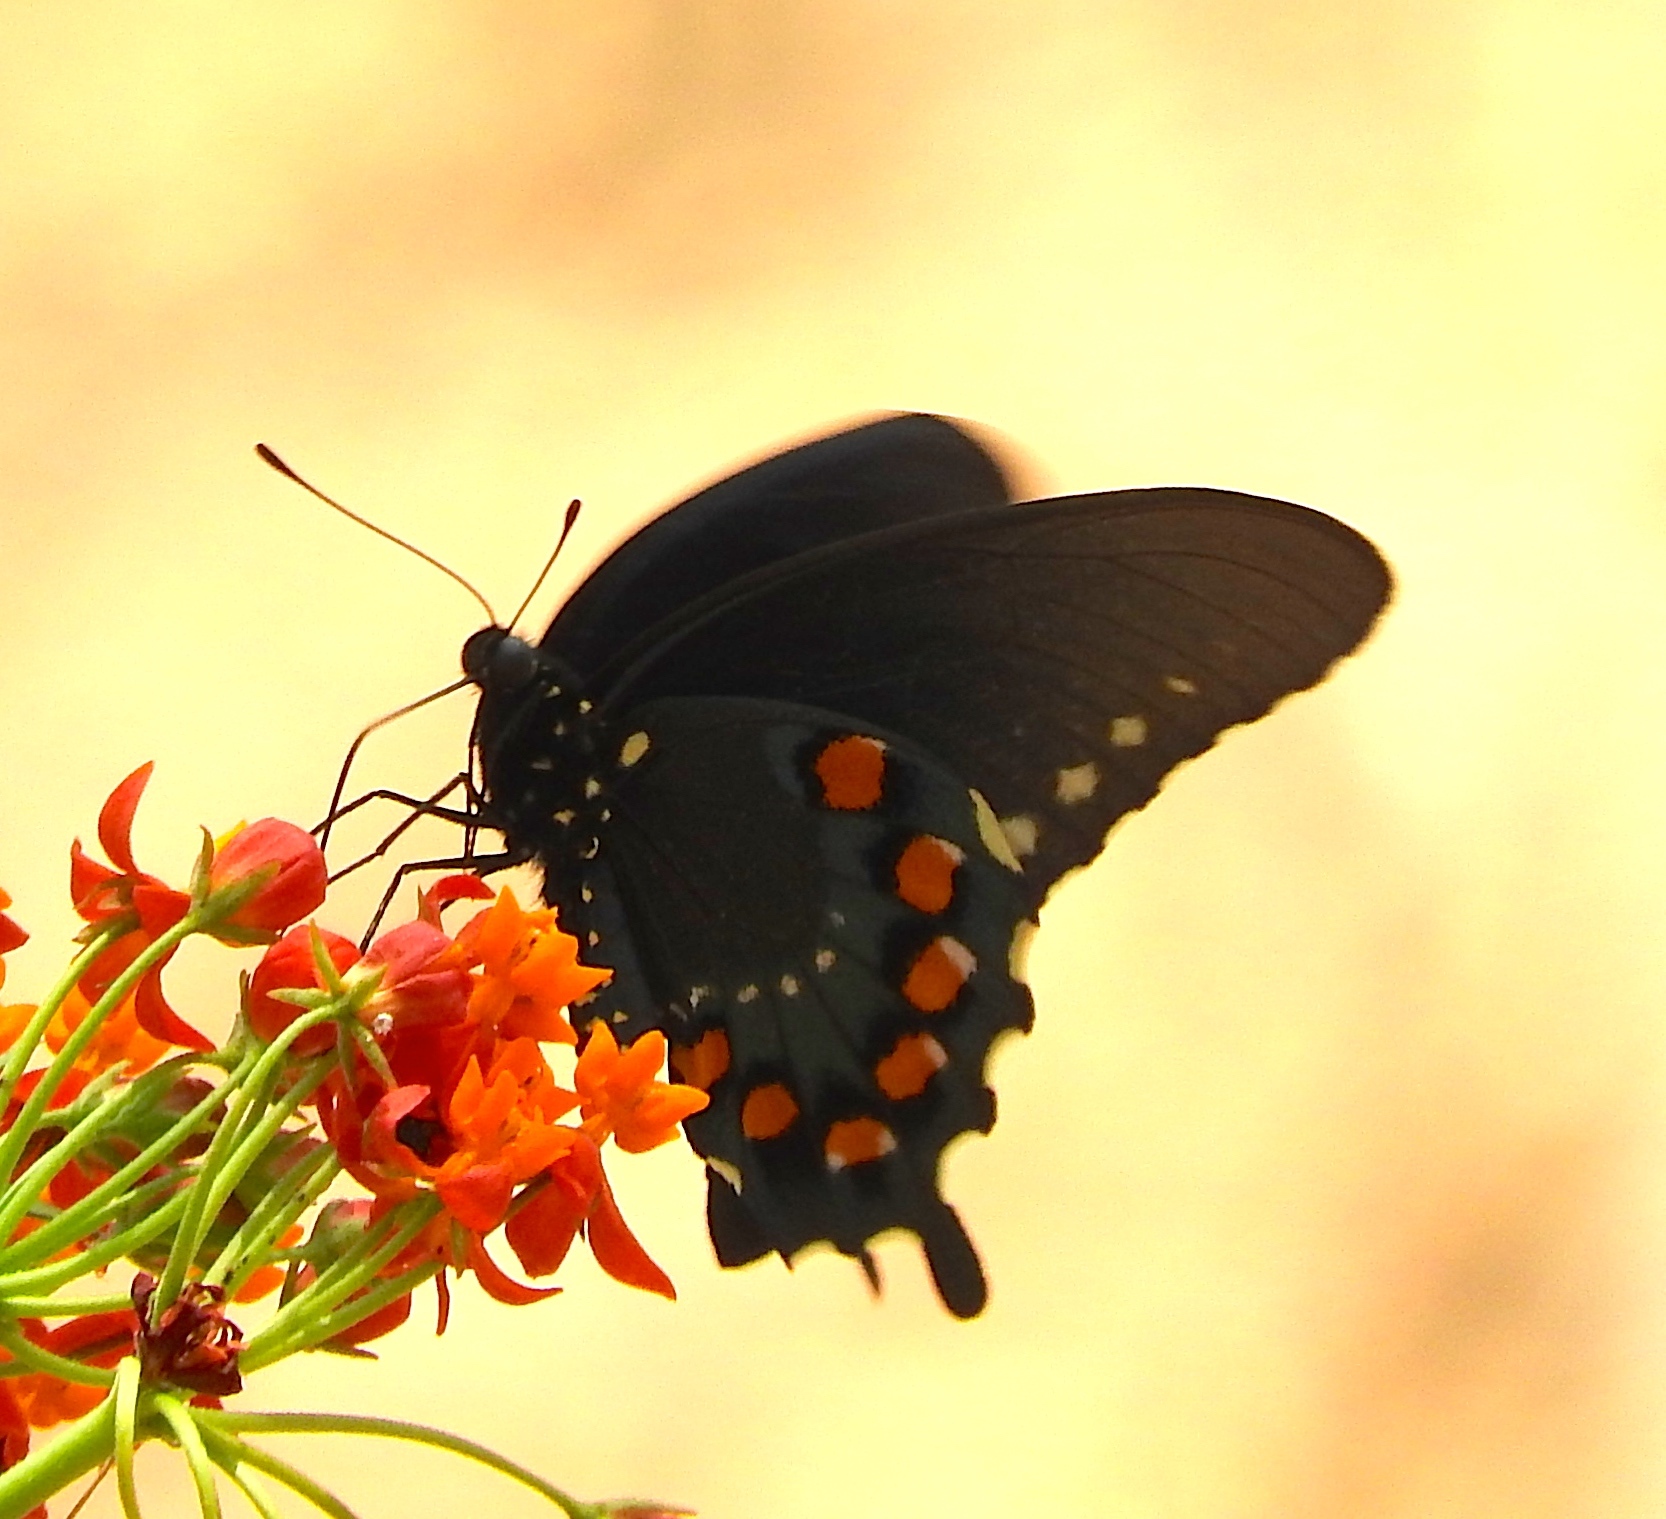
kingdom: Animalia
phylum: Arthropoda
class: Insecta
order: Lepidoptera
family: Papilionidae
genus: Battus
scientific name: Battus philenor
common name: Pipevine swallowtail
